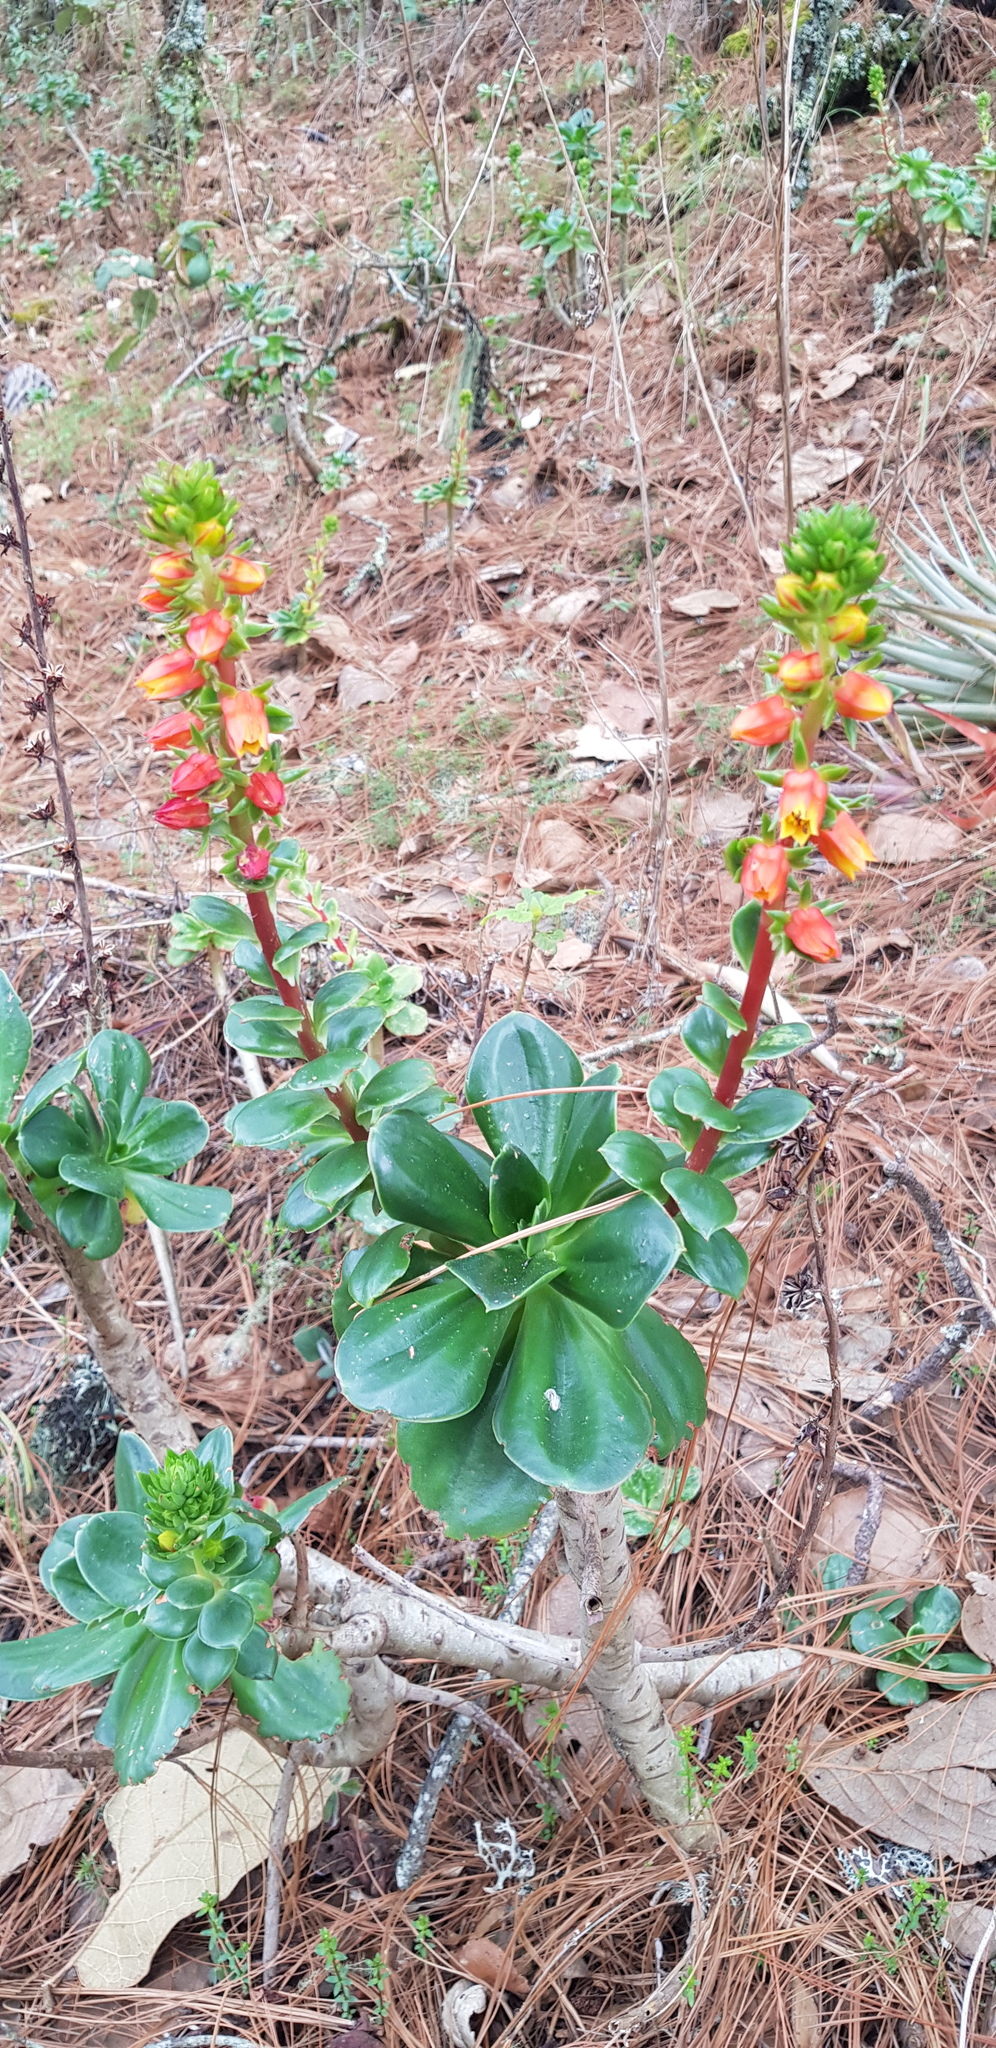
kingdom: Plantae
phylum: Tracheophyta
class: Magnoliopsida
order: Saxifragales
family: Crassulaceae
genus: Echeveria
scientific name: Echeveria montana
